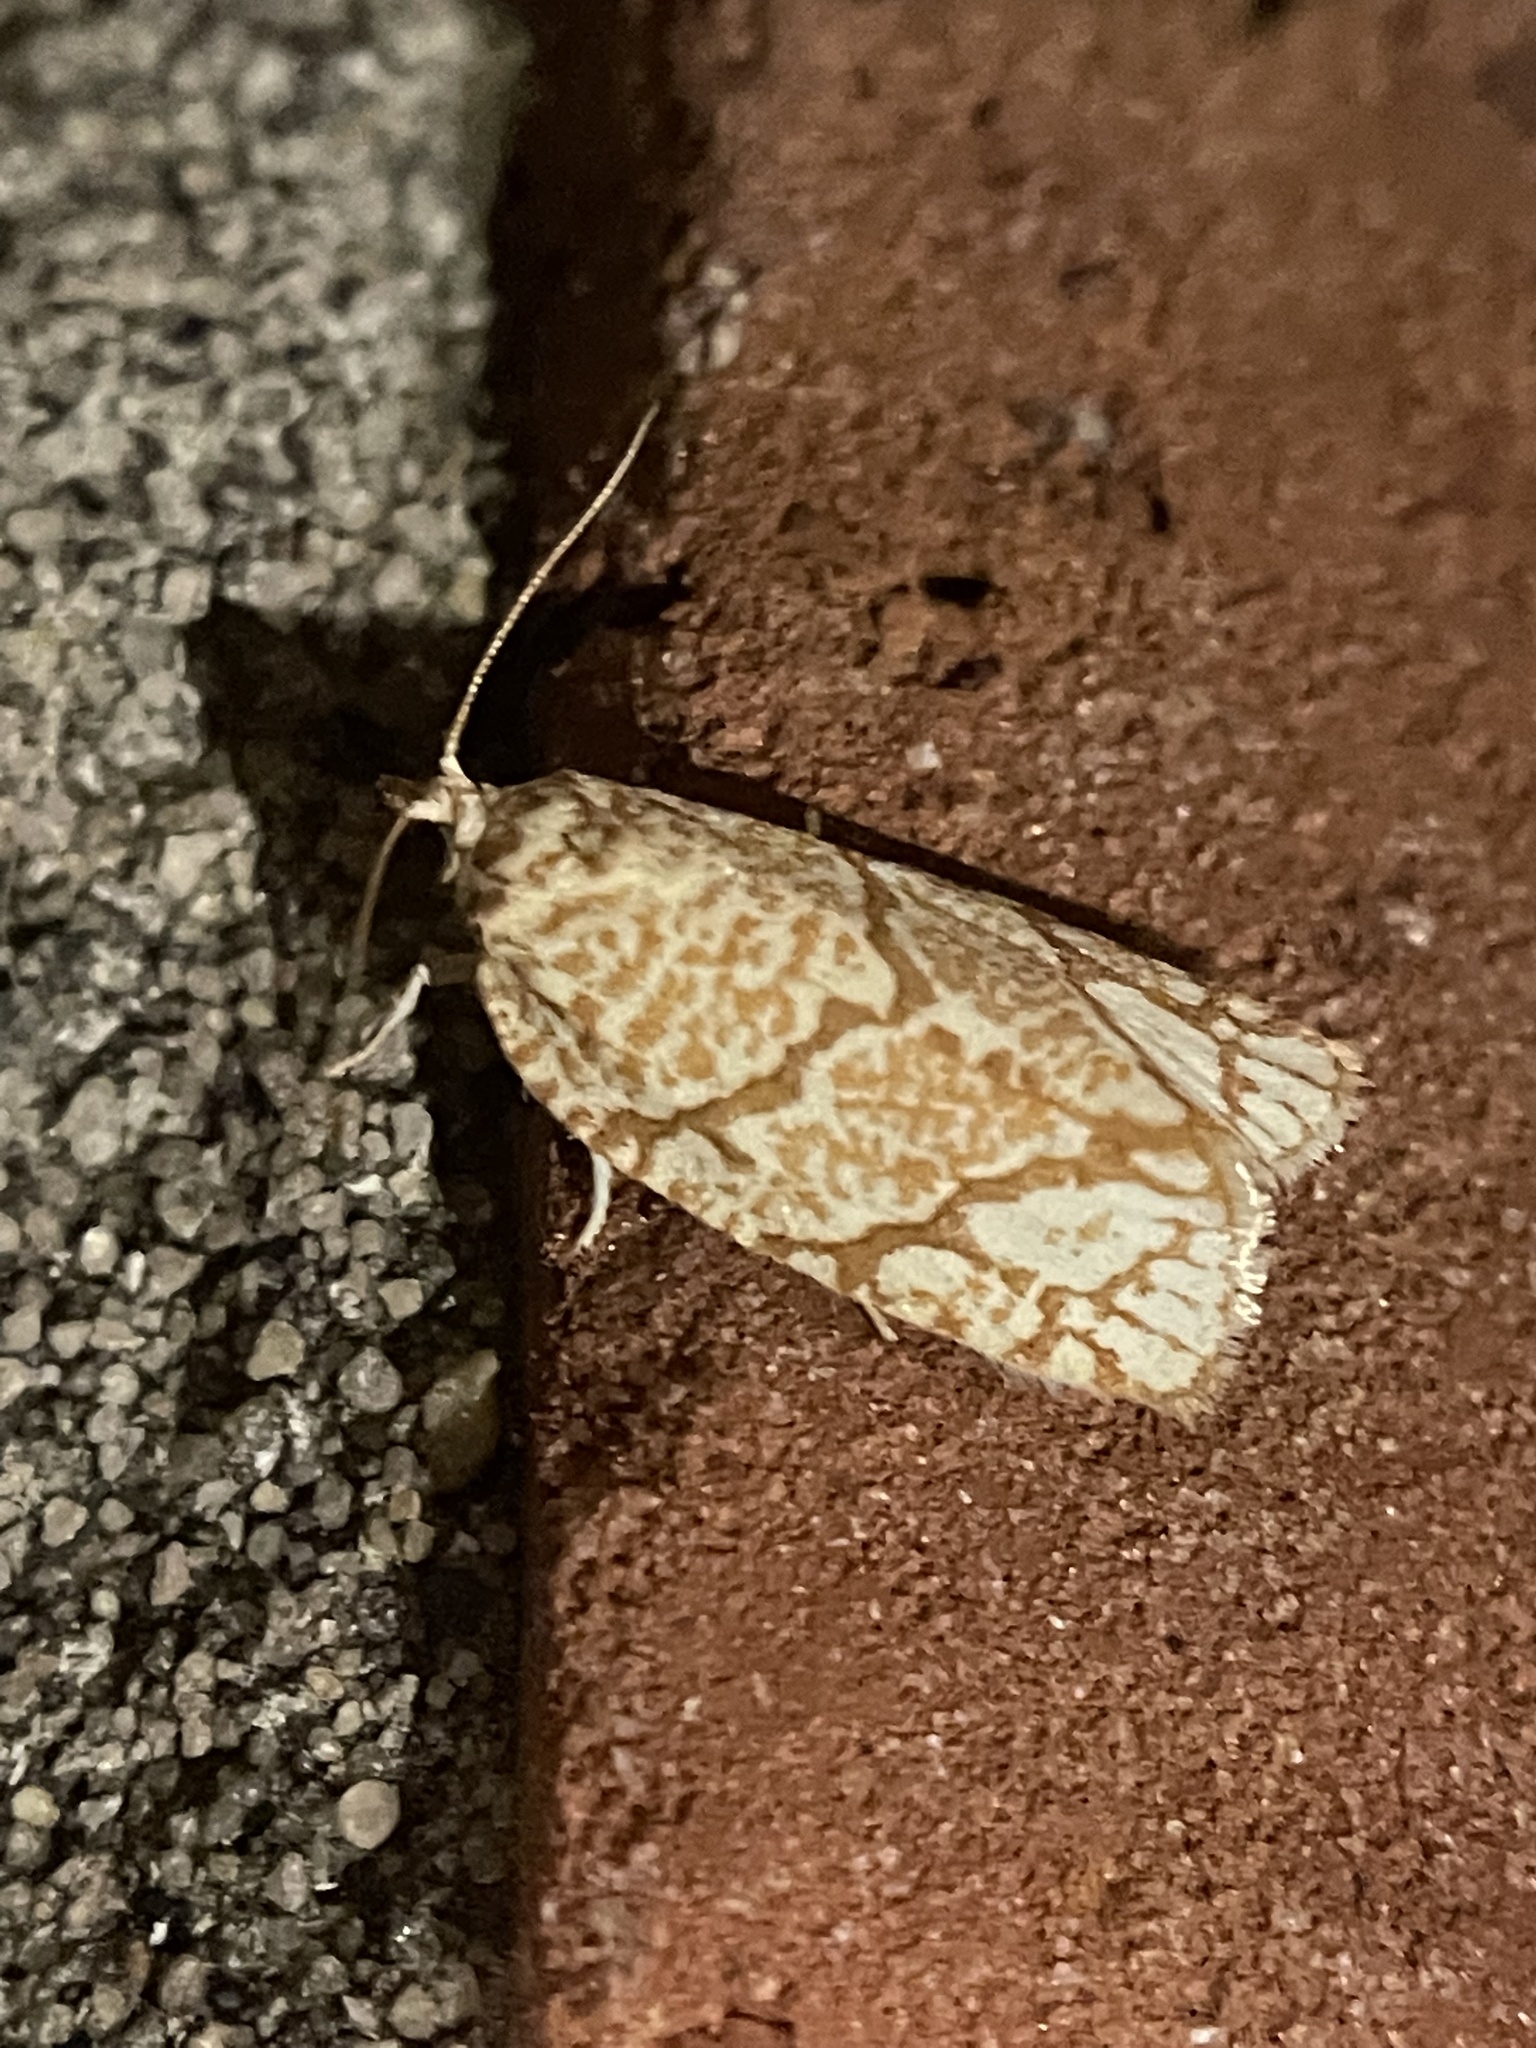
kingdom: Animalia
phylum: Arthropoda
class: Insecta
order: Lepidoptera
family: Tortricidae
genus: Argyrotaenia
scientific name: Argyrotaenia quercifoliana
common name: Yellow-winged oak leafroller moth
